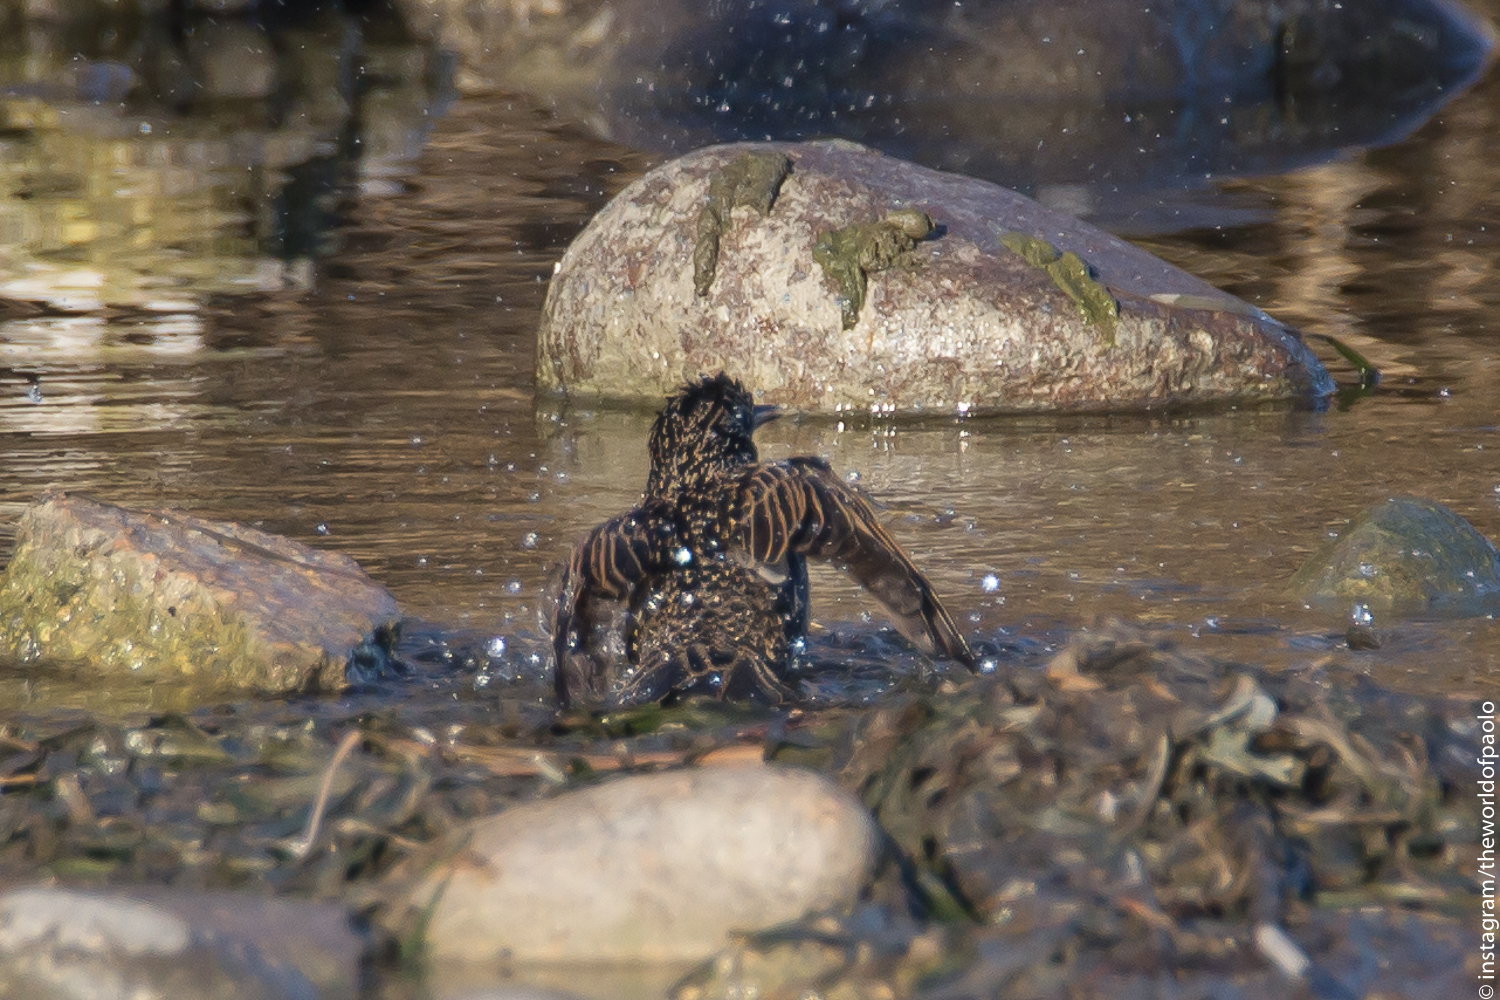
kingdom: Animalia
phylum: Chordata
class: Aves
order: Passeriformes
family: Sturnidae
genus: Sturnus
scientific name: Sturnus vulgaris
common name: Common starling
